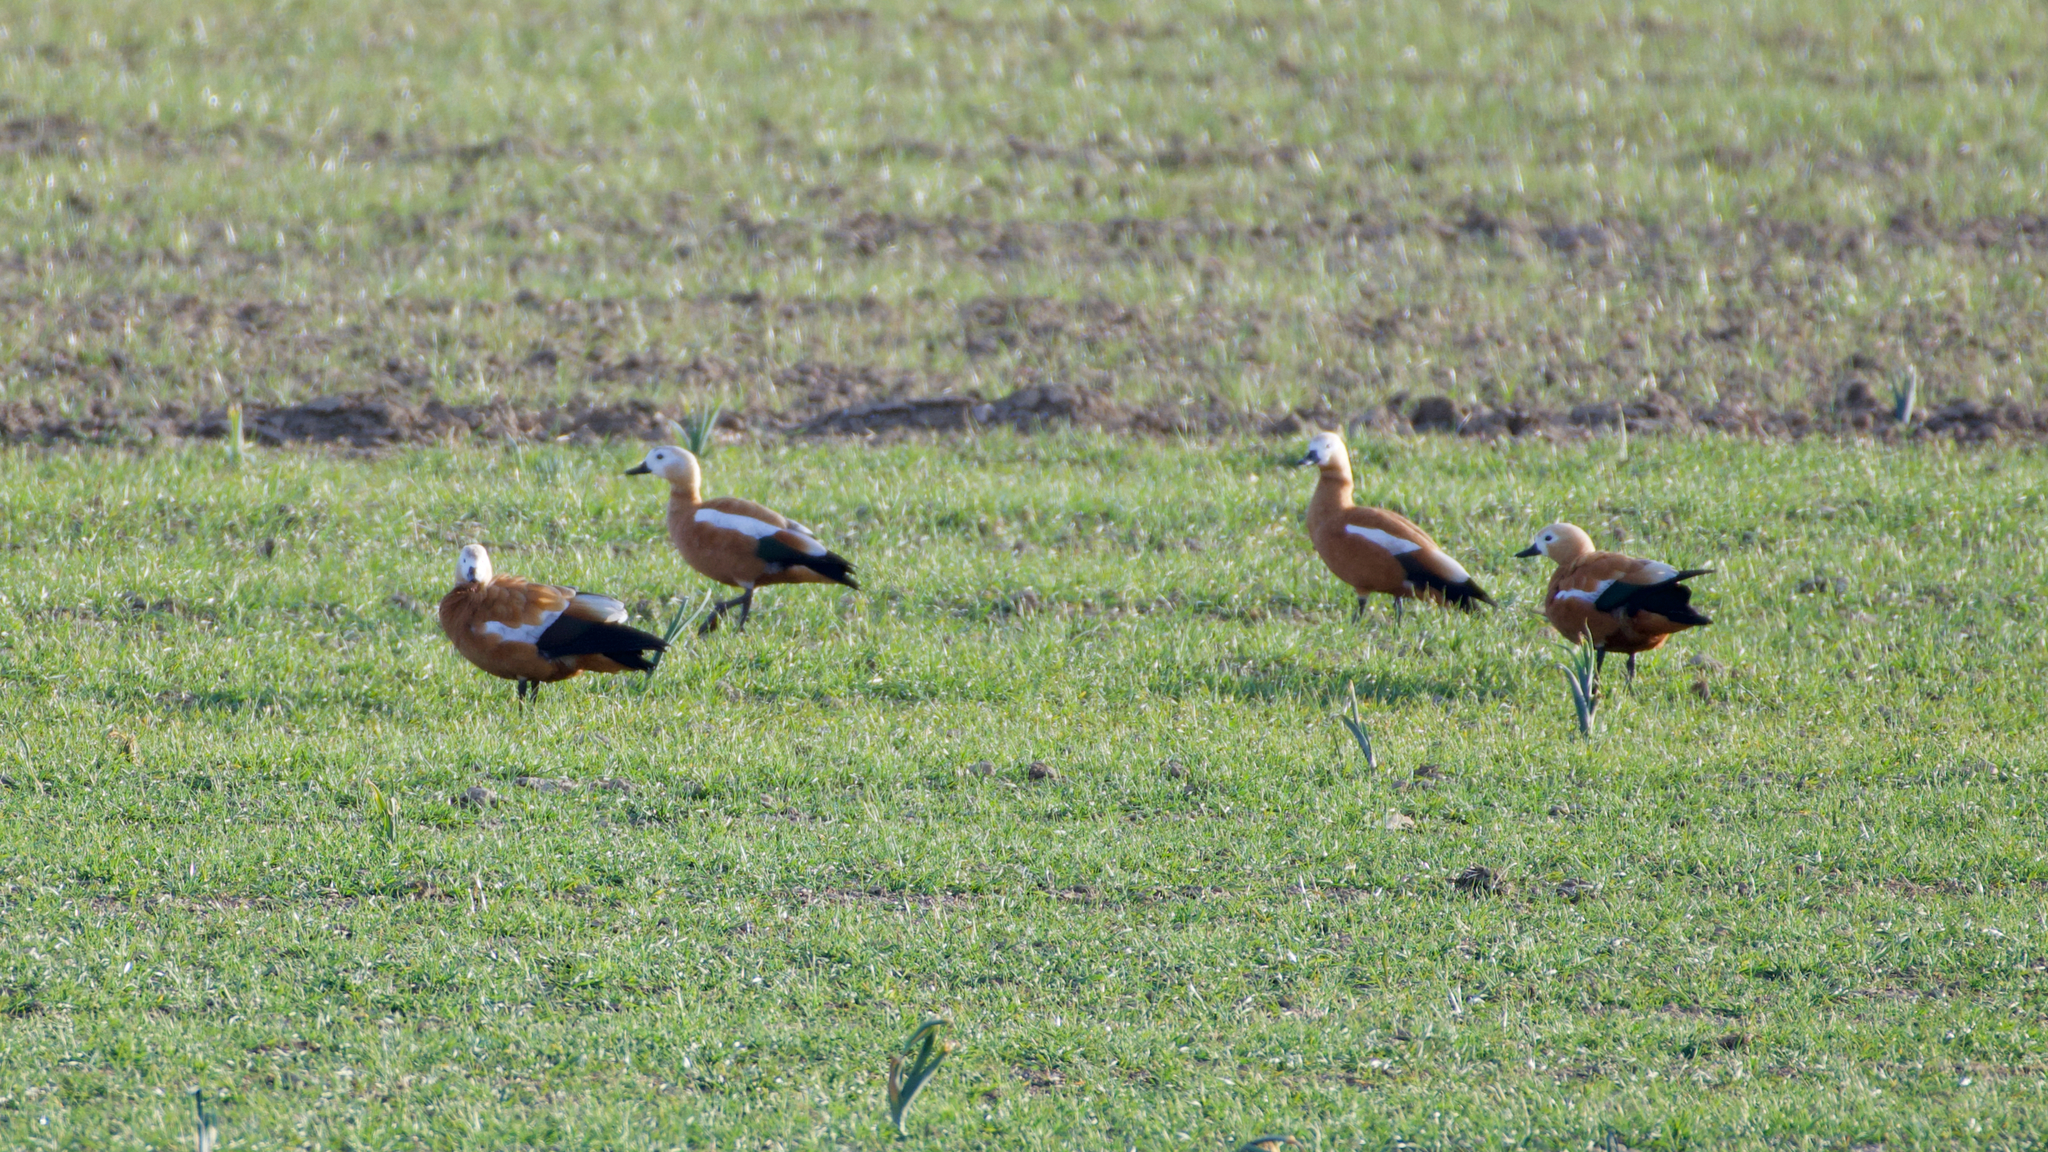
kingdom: Animalia
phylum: Chordata
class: Aves
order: Anseriformes
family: Anatidae
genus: Tadorna
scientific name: Tadorna ferruginea
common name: Ruddy shelduck
